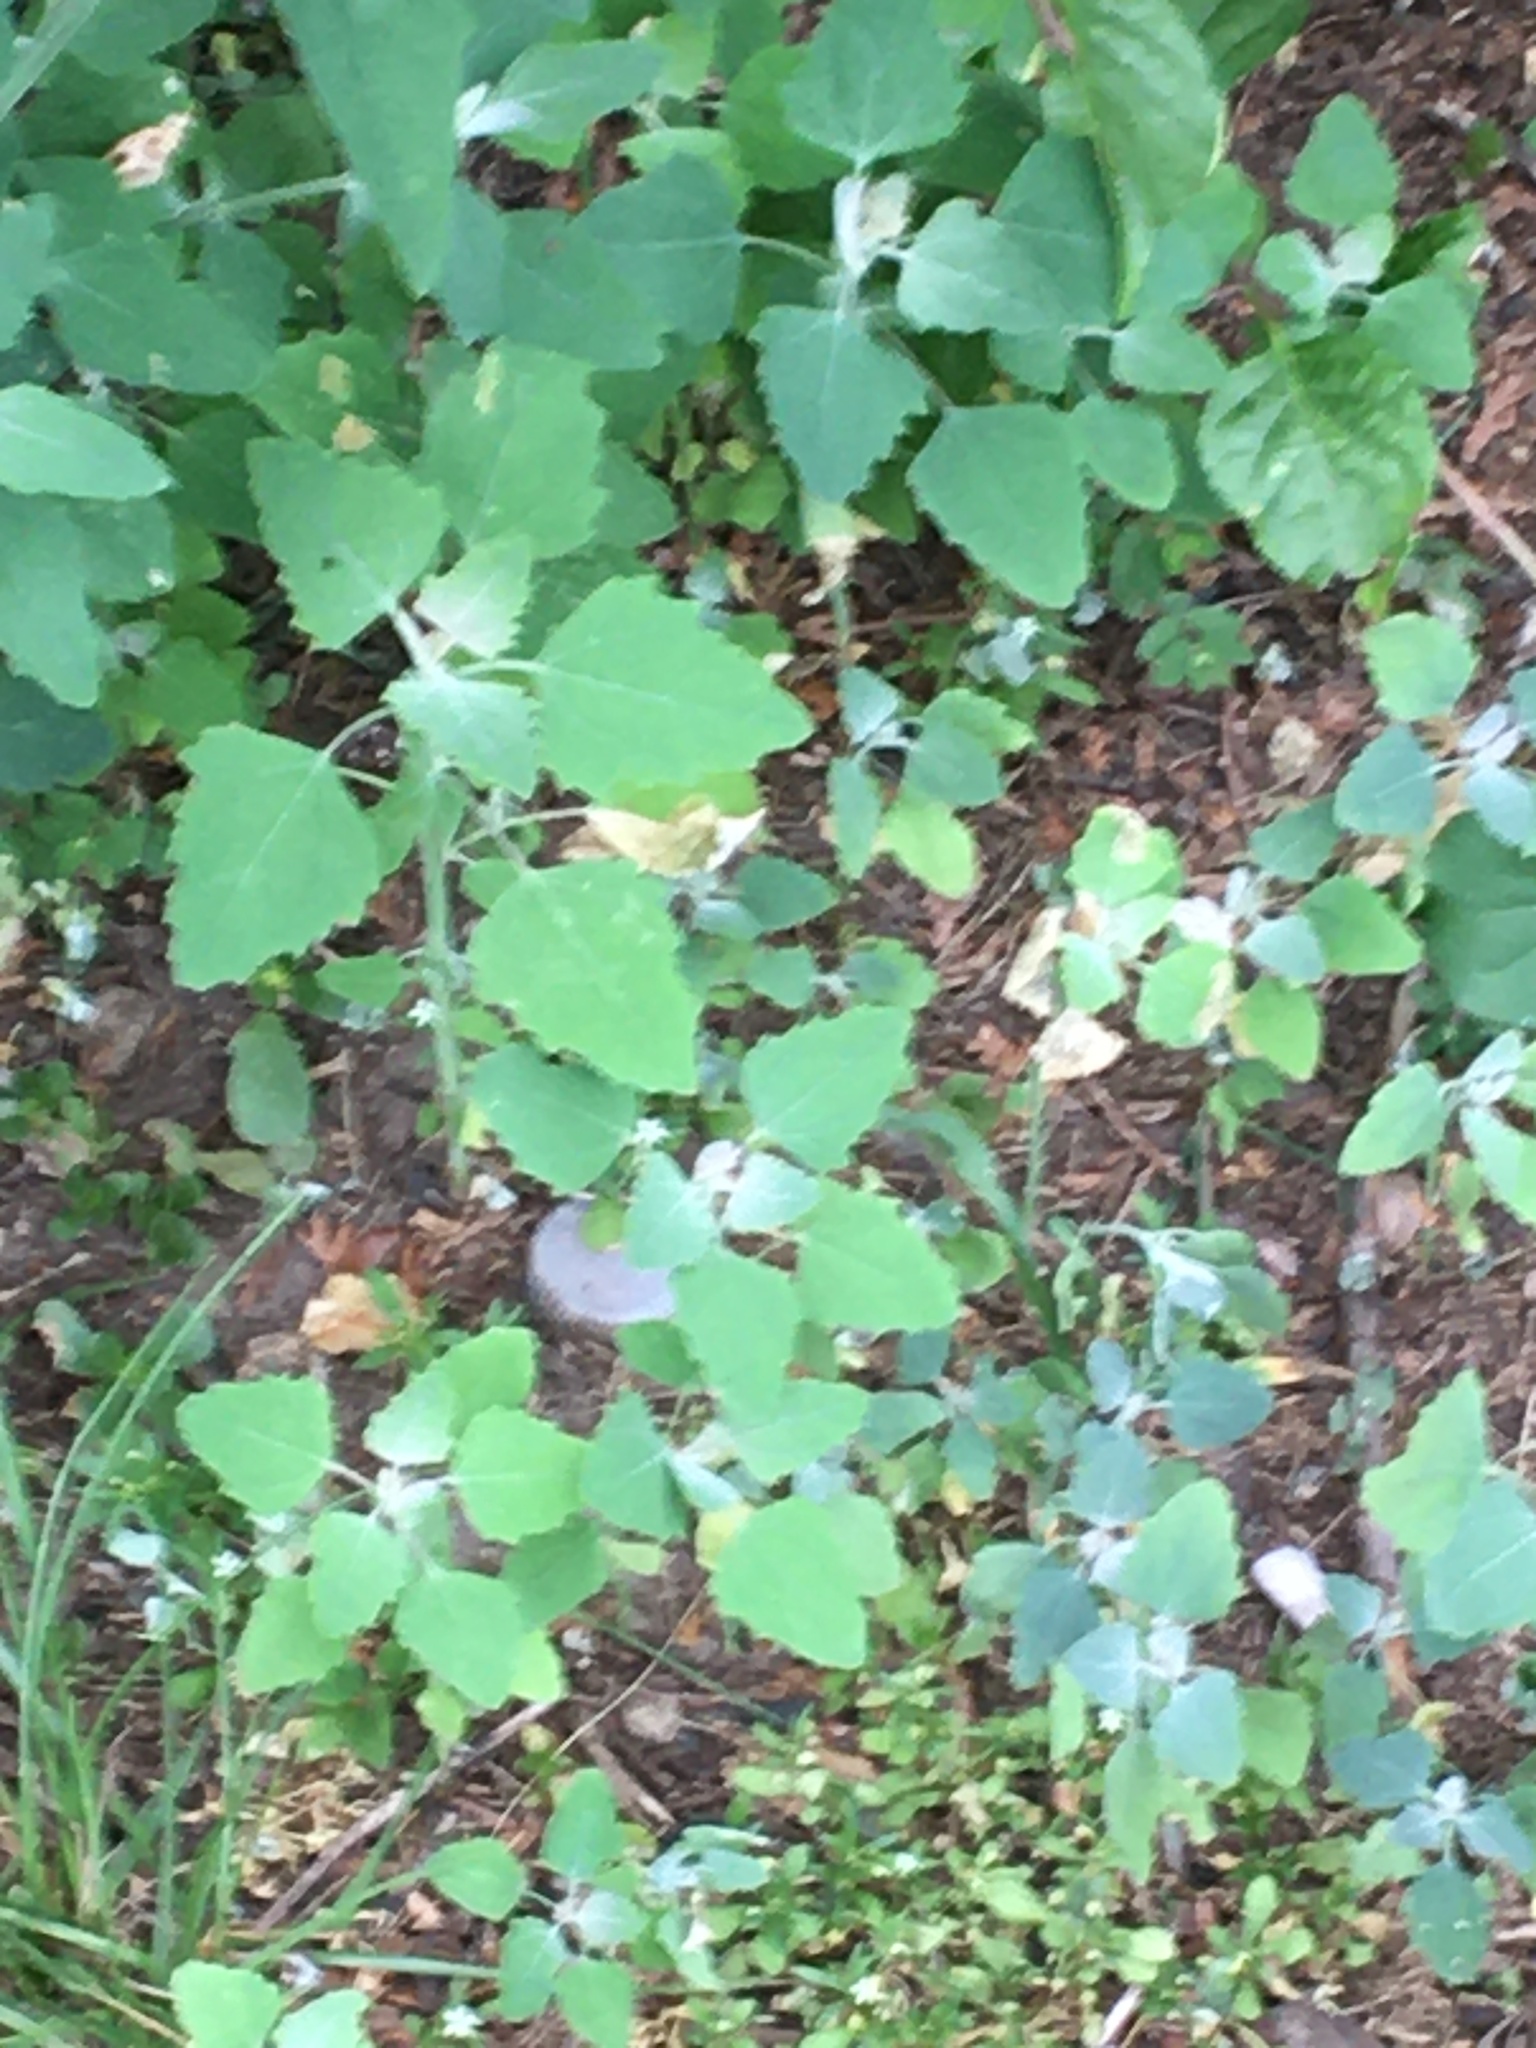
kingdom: Plantae
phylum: Tracheophyta
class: Magnoliopsida
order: Caryophyllales
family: Amaranthaceae
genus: Chenopodium
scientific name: Chenopodium album
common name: Fat-hen
